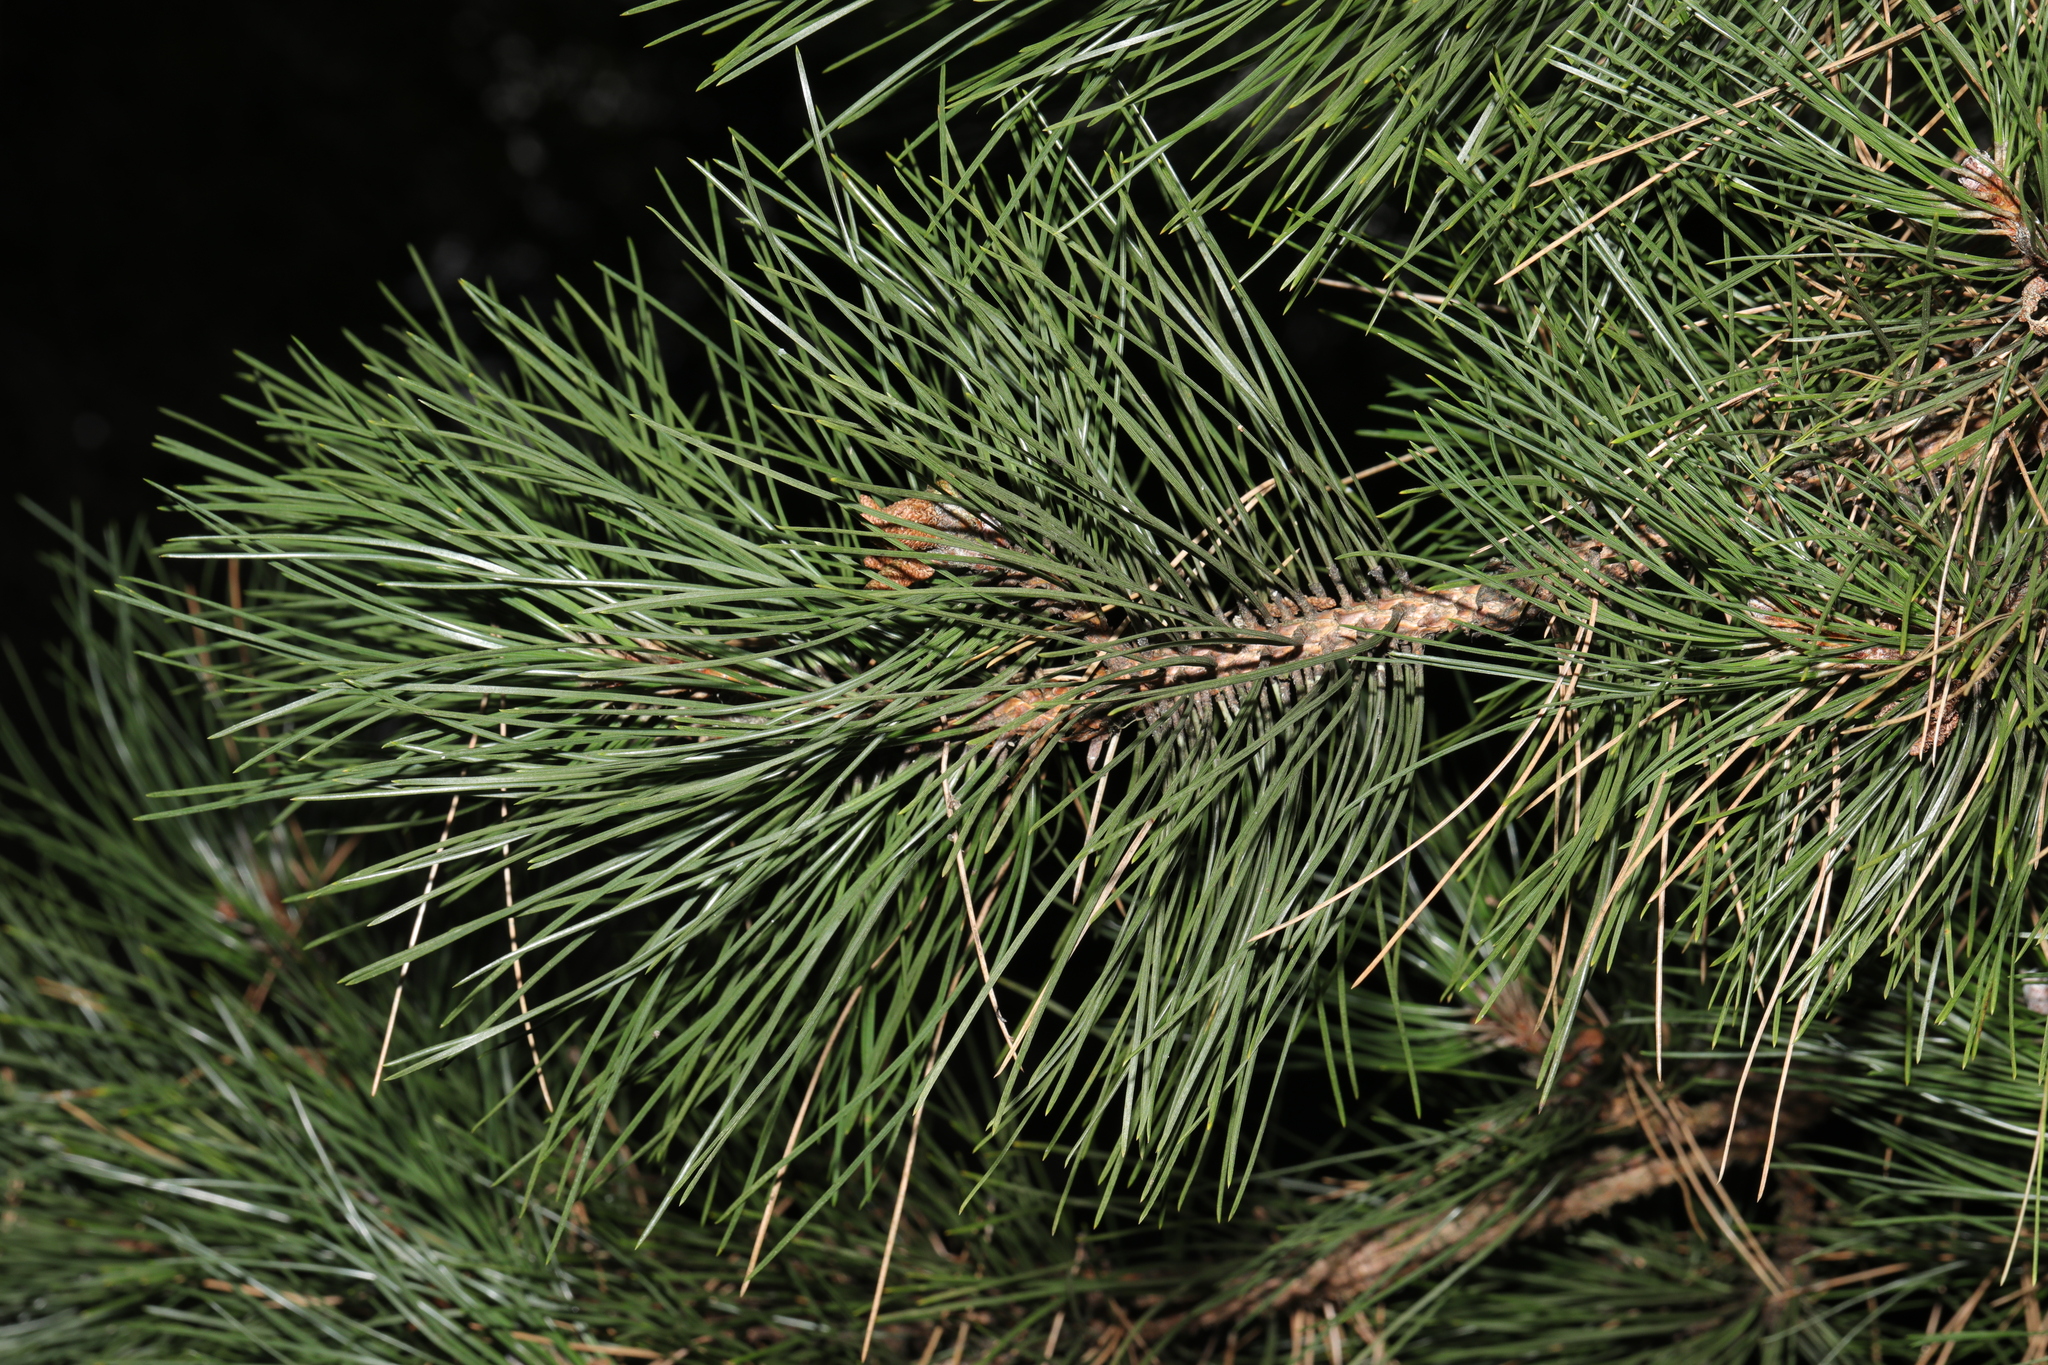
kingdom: Plantae
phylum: Tracheophyta
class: Pinopsida
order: Pinales
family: Pinaceae
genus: Pinus
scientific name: Pinus nigra
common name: Austrian pine
